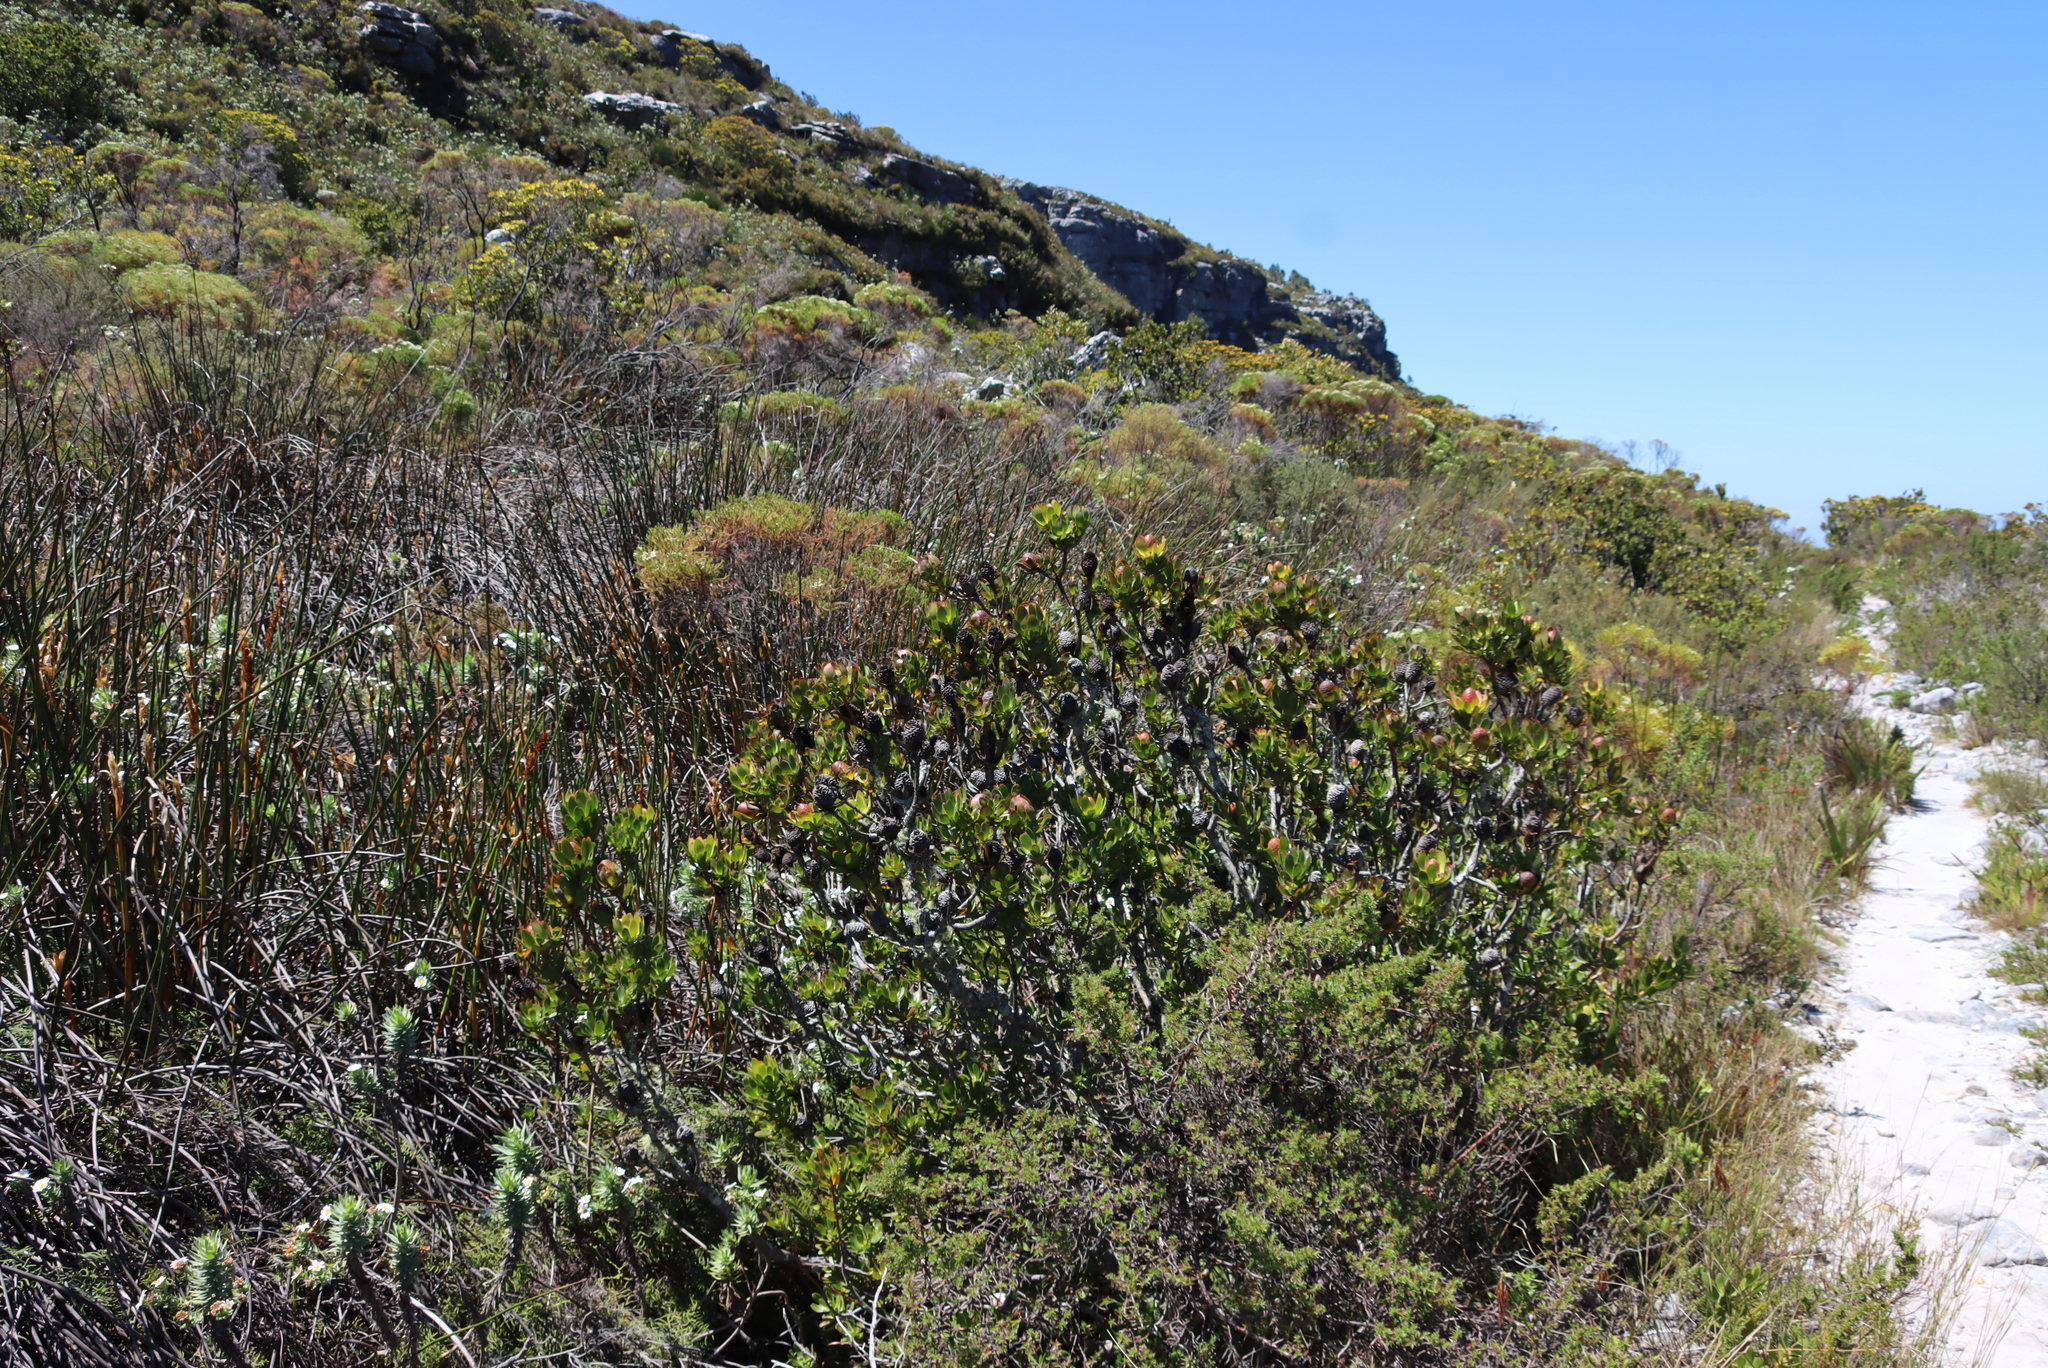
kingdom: Plantae
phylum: Tracheophyta
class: Magnoliopsida
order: Proteales
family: Proteaceae
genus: Leucadendron
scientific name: Leucadendron strobilinum
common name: Mountain rose
